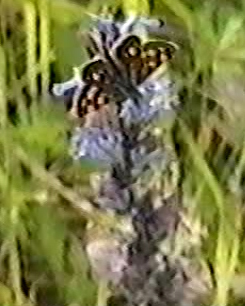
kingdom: Animalia
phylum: Arthropoda
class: Insecta
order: Lepidoptera
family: Hesperiidae
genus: Carterocephalus
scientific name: Carterocephalus palaemon
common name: Chequered skipper
